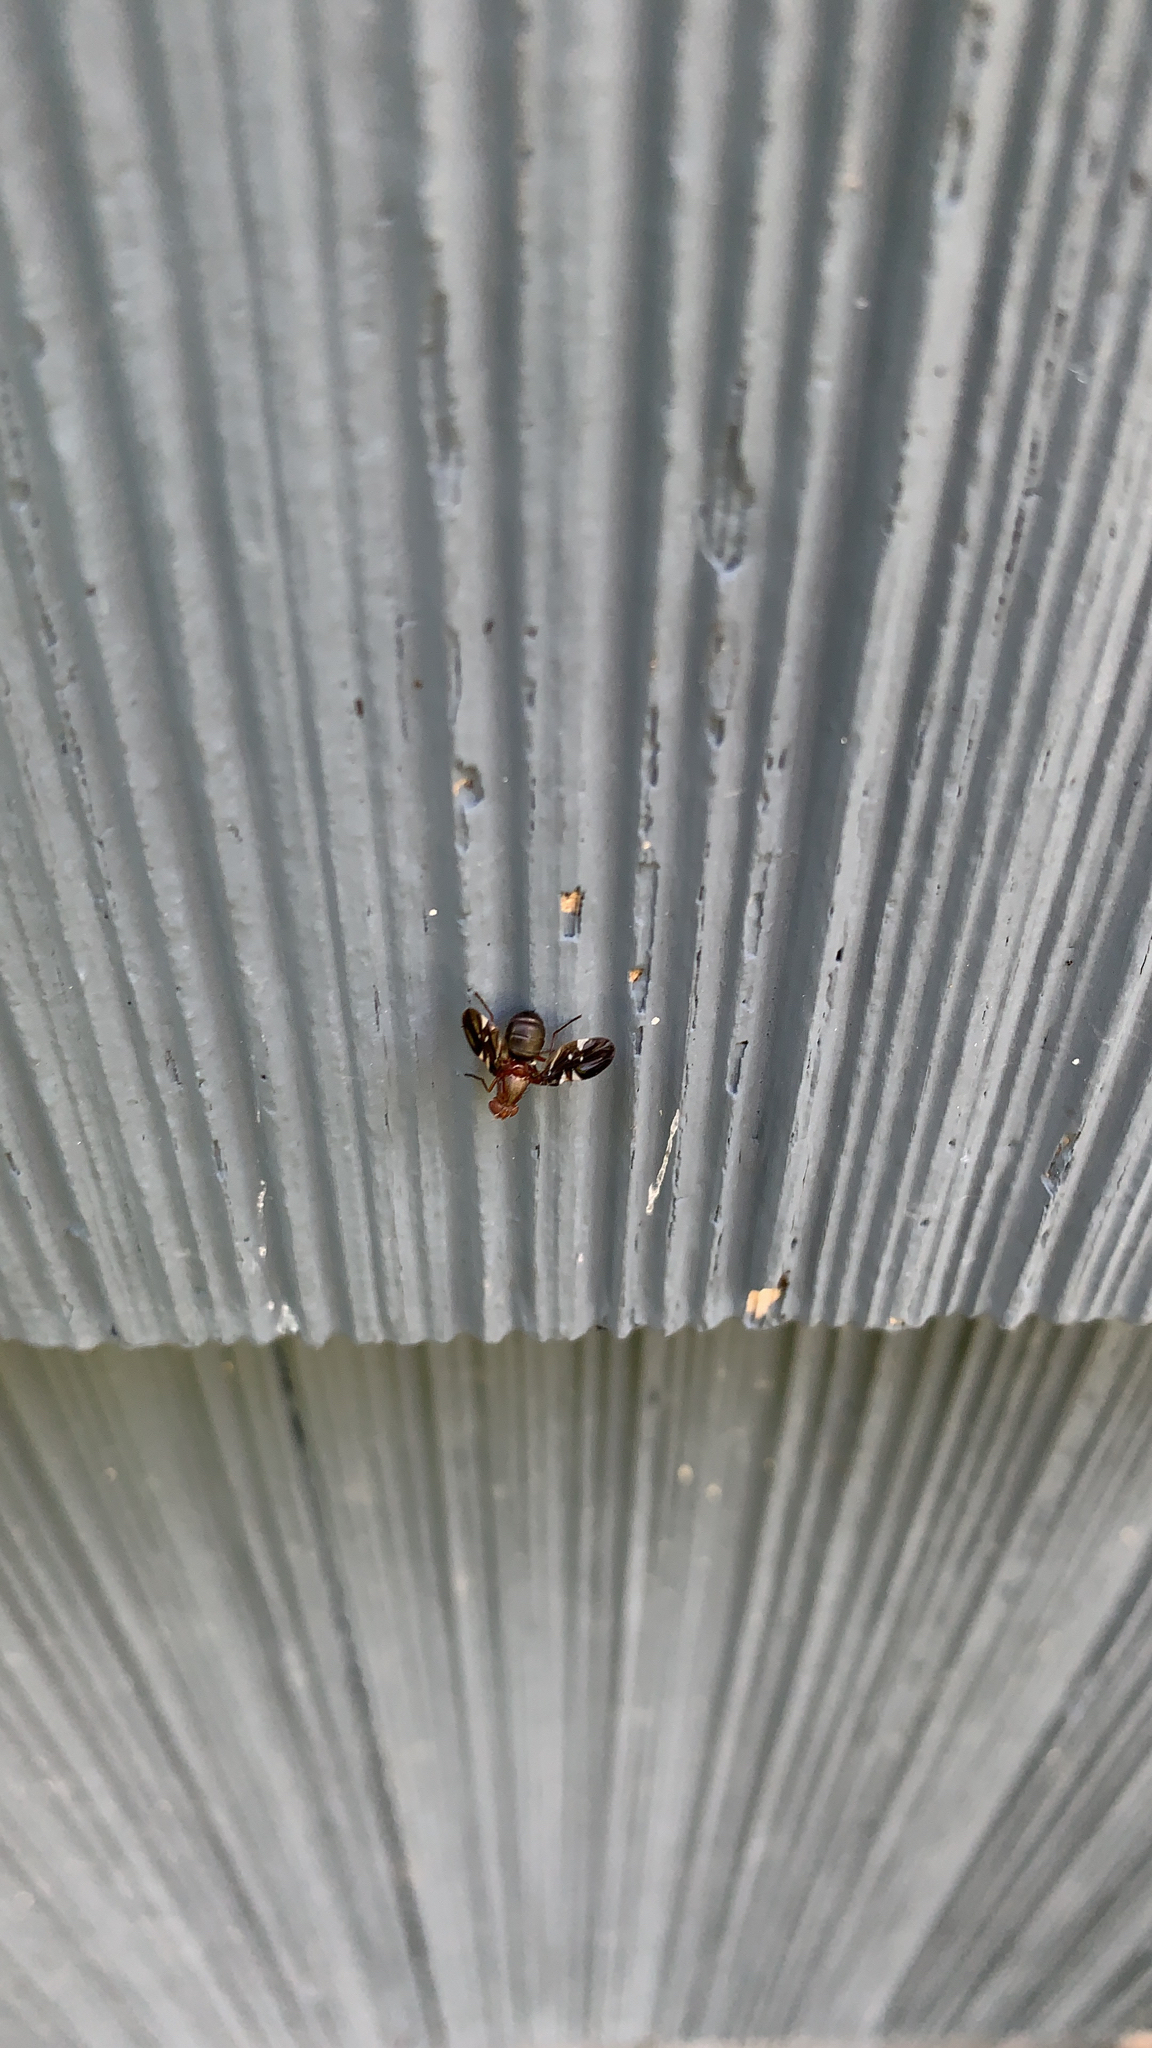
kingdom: Animalia
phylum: Arthropoda
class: Insecta
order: Diptera
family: Ulidiidae
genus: Delphinia
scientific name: Delphinia picta
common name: Common picture-winged fly
